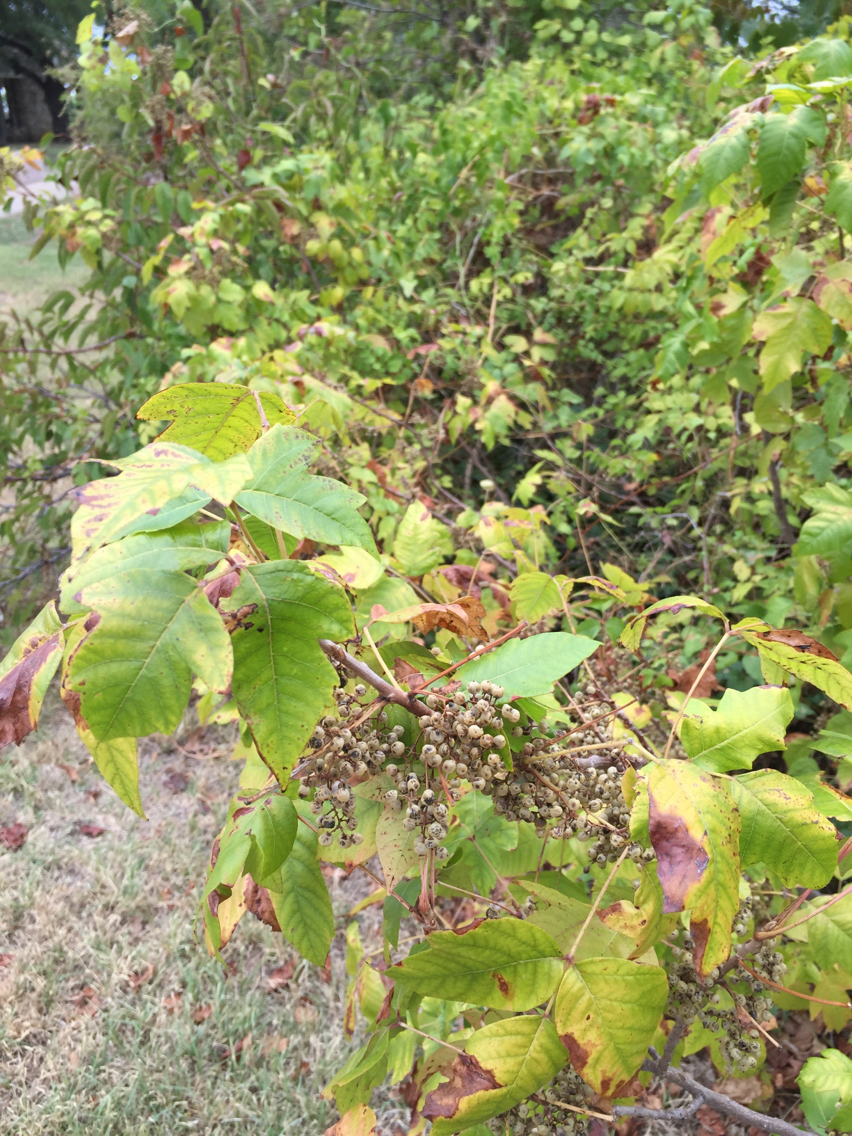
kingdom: Plantae
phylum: Tracheophyta
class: Magnoliopsida
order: Sapindales
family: Anacardiaceae
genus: Toxicodendron
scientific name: Toxicodendron radicans
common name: Poison ivy
